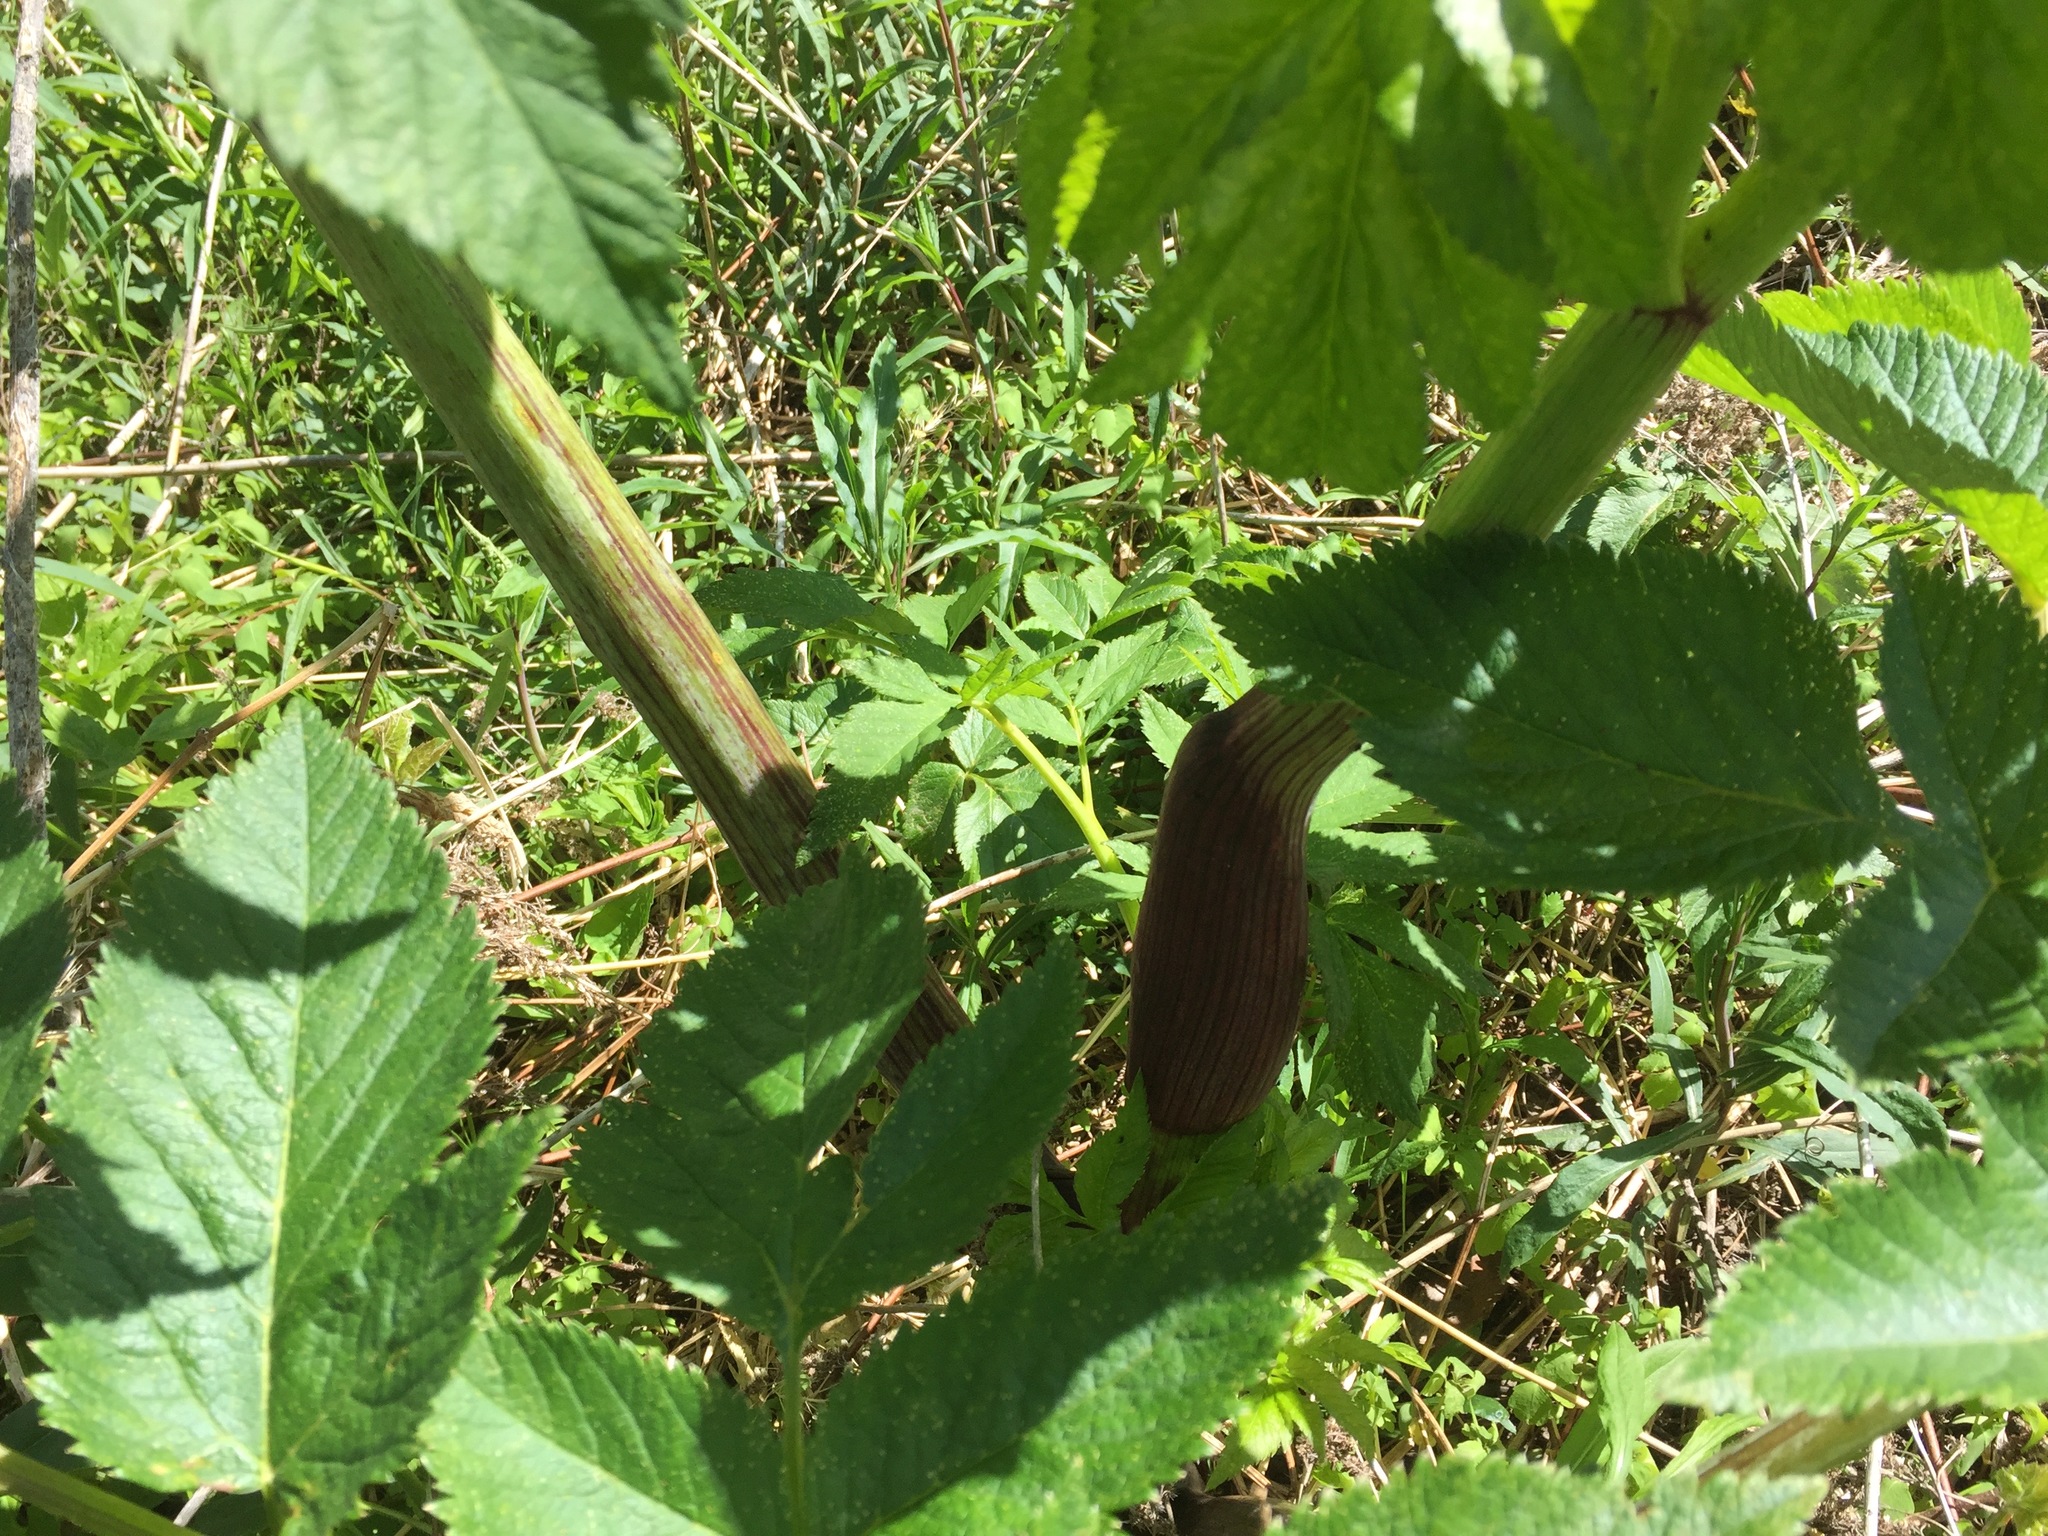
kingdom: Plantae
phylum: Tracheophyta
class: Magnoliopsida
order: Apiales
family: Apiaceae
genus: Angelica
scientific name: Angelica atropurpurea
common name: Great angelica
